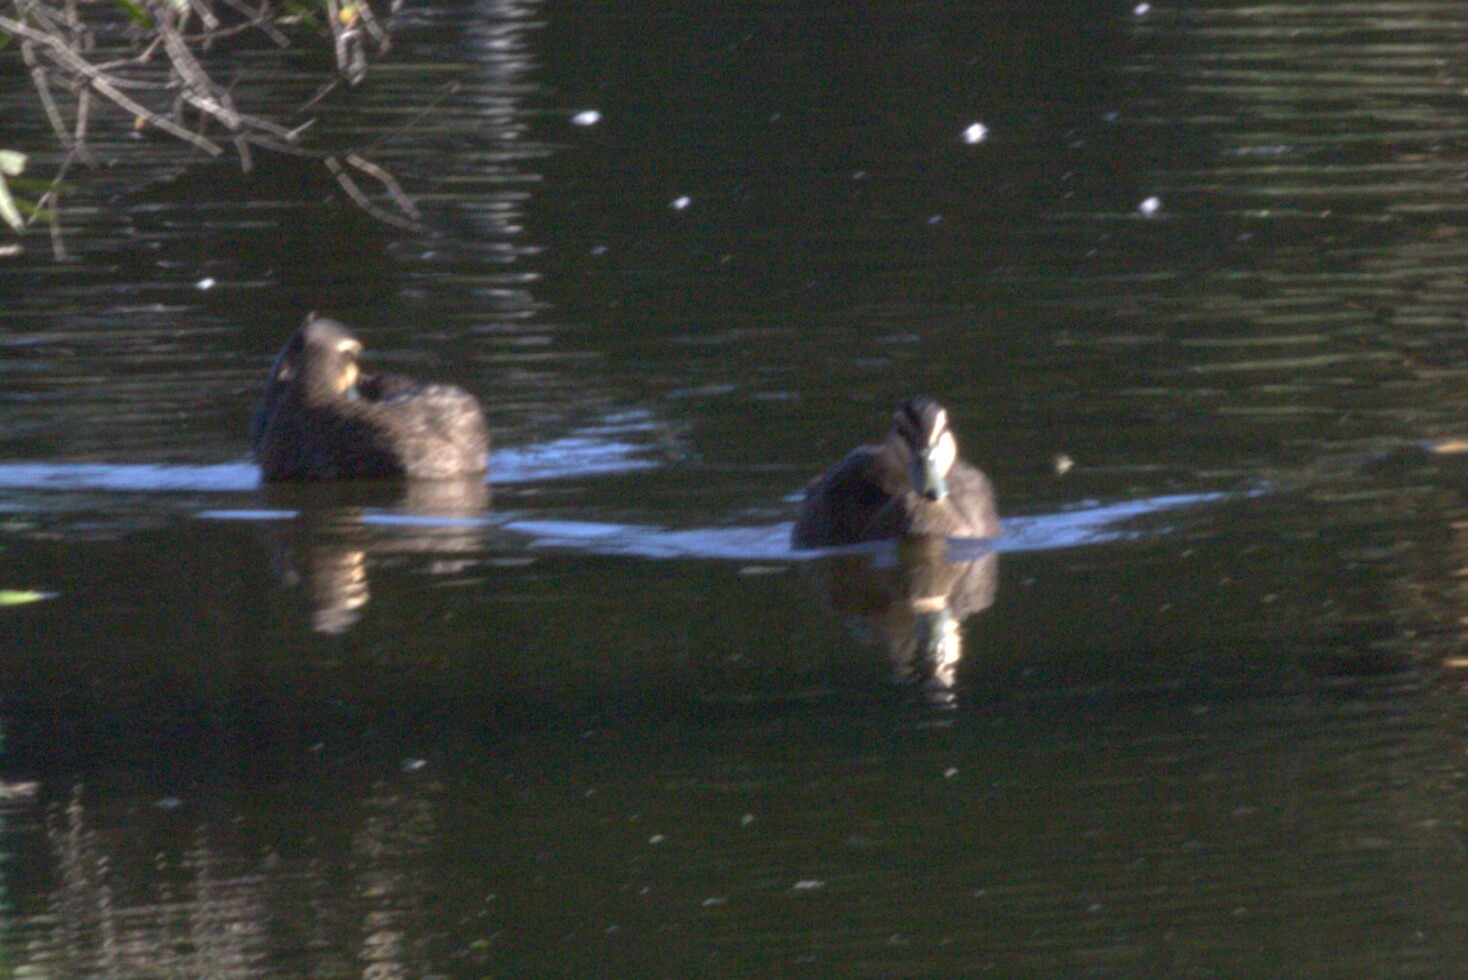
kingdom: Animalia
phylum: Chordata
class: Aves
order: Anseriformes
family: Anatidae
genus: Anas
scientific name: Anas superciliosa
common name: Pacific black duck
